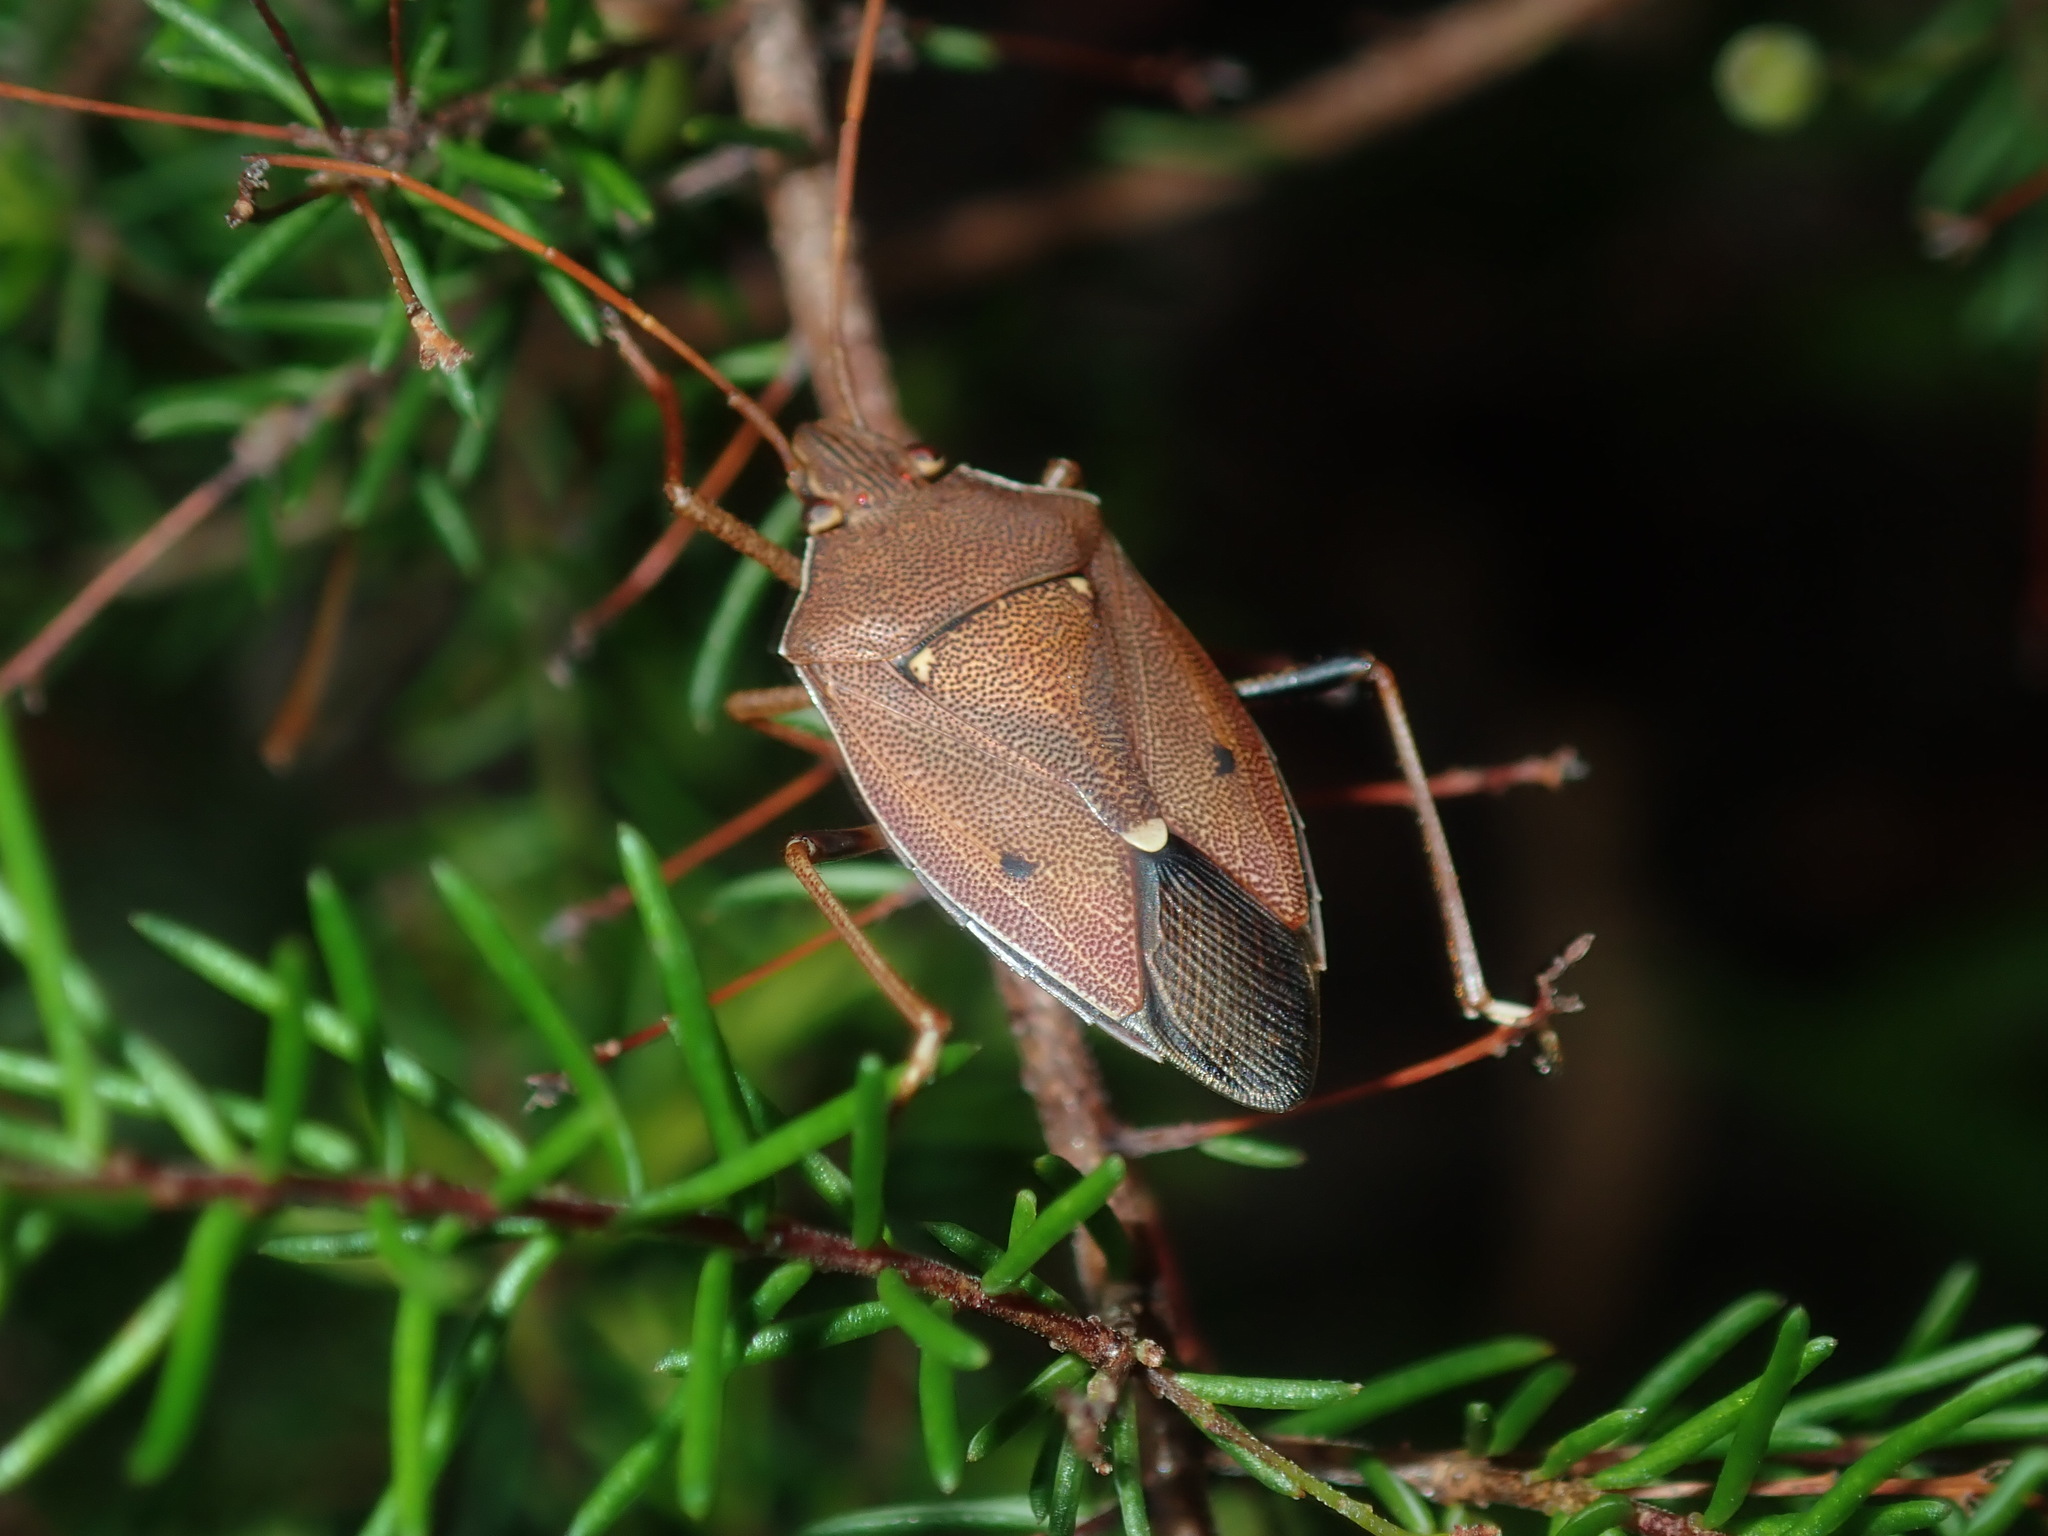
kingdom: Animalia
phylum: Arthropoda
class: Insecta
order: Hemiptera
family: Pentatomidae
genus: Poecilometis
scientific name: Poecilometis
